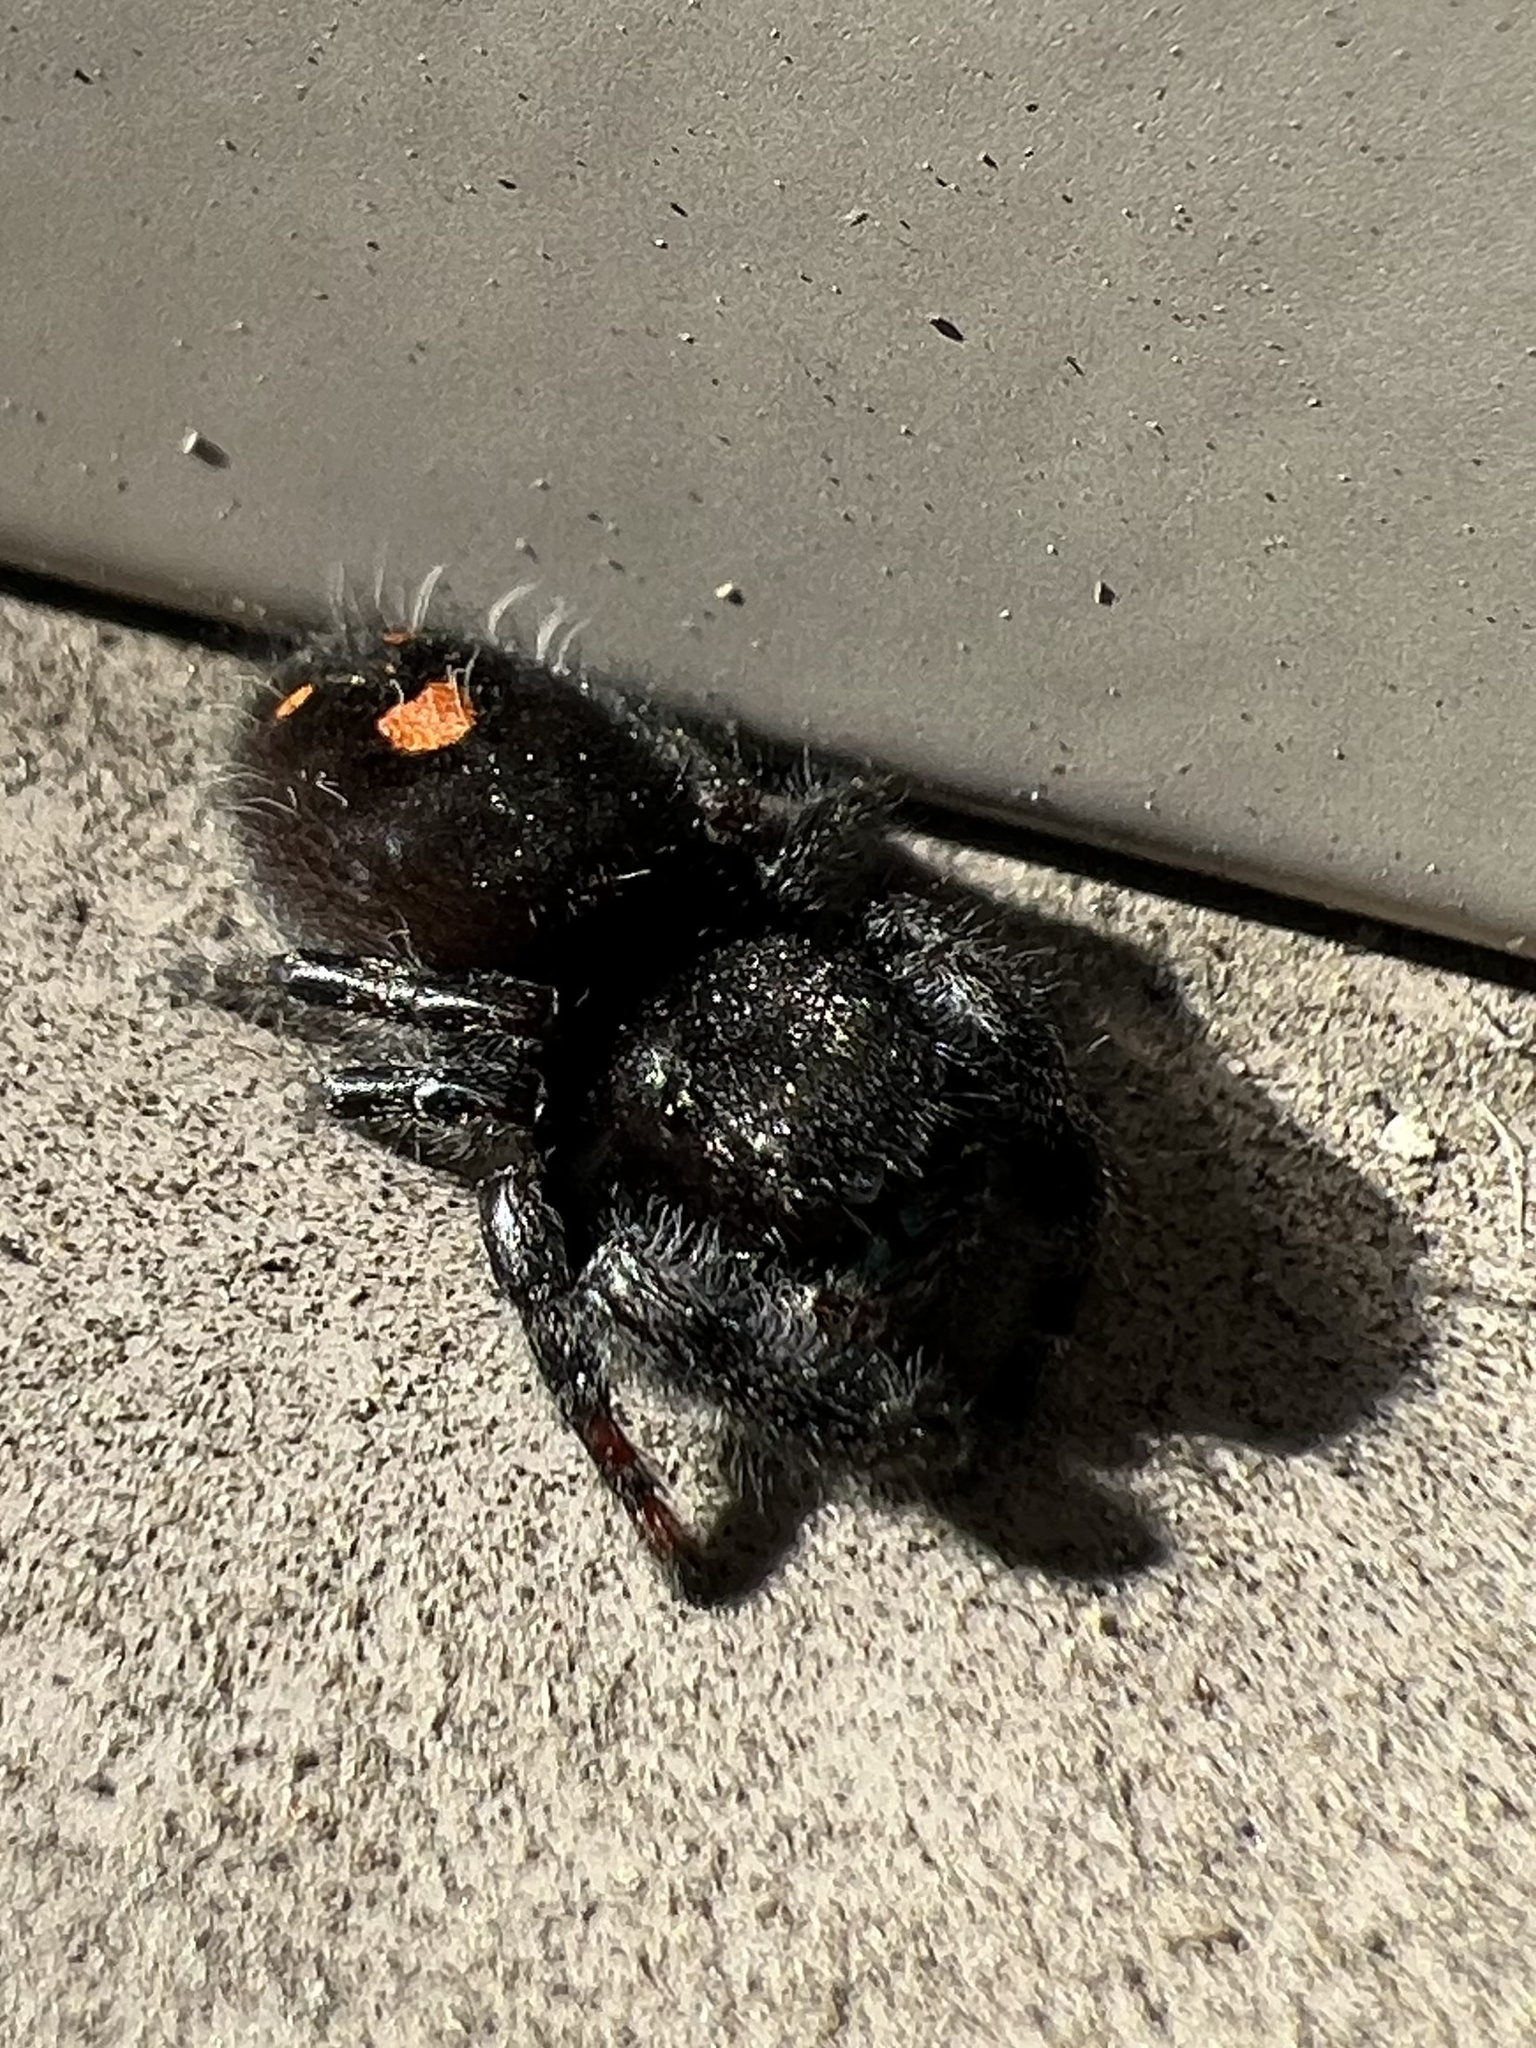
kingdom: Animalia
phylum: Arthropoda
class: Arachnida
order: Araneae
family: Salticidae
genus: Phidippus
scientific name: Phidippus audax
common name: Bold jumper
